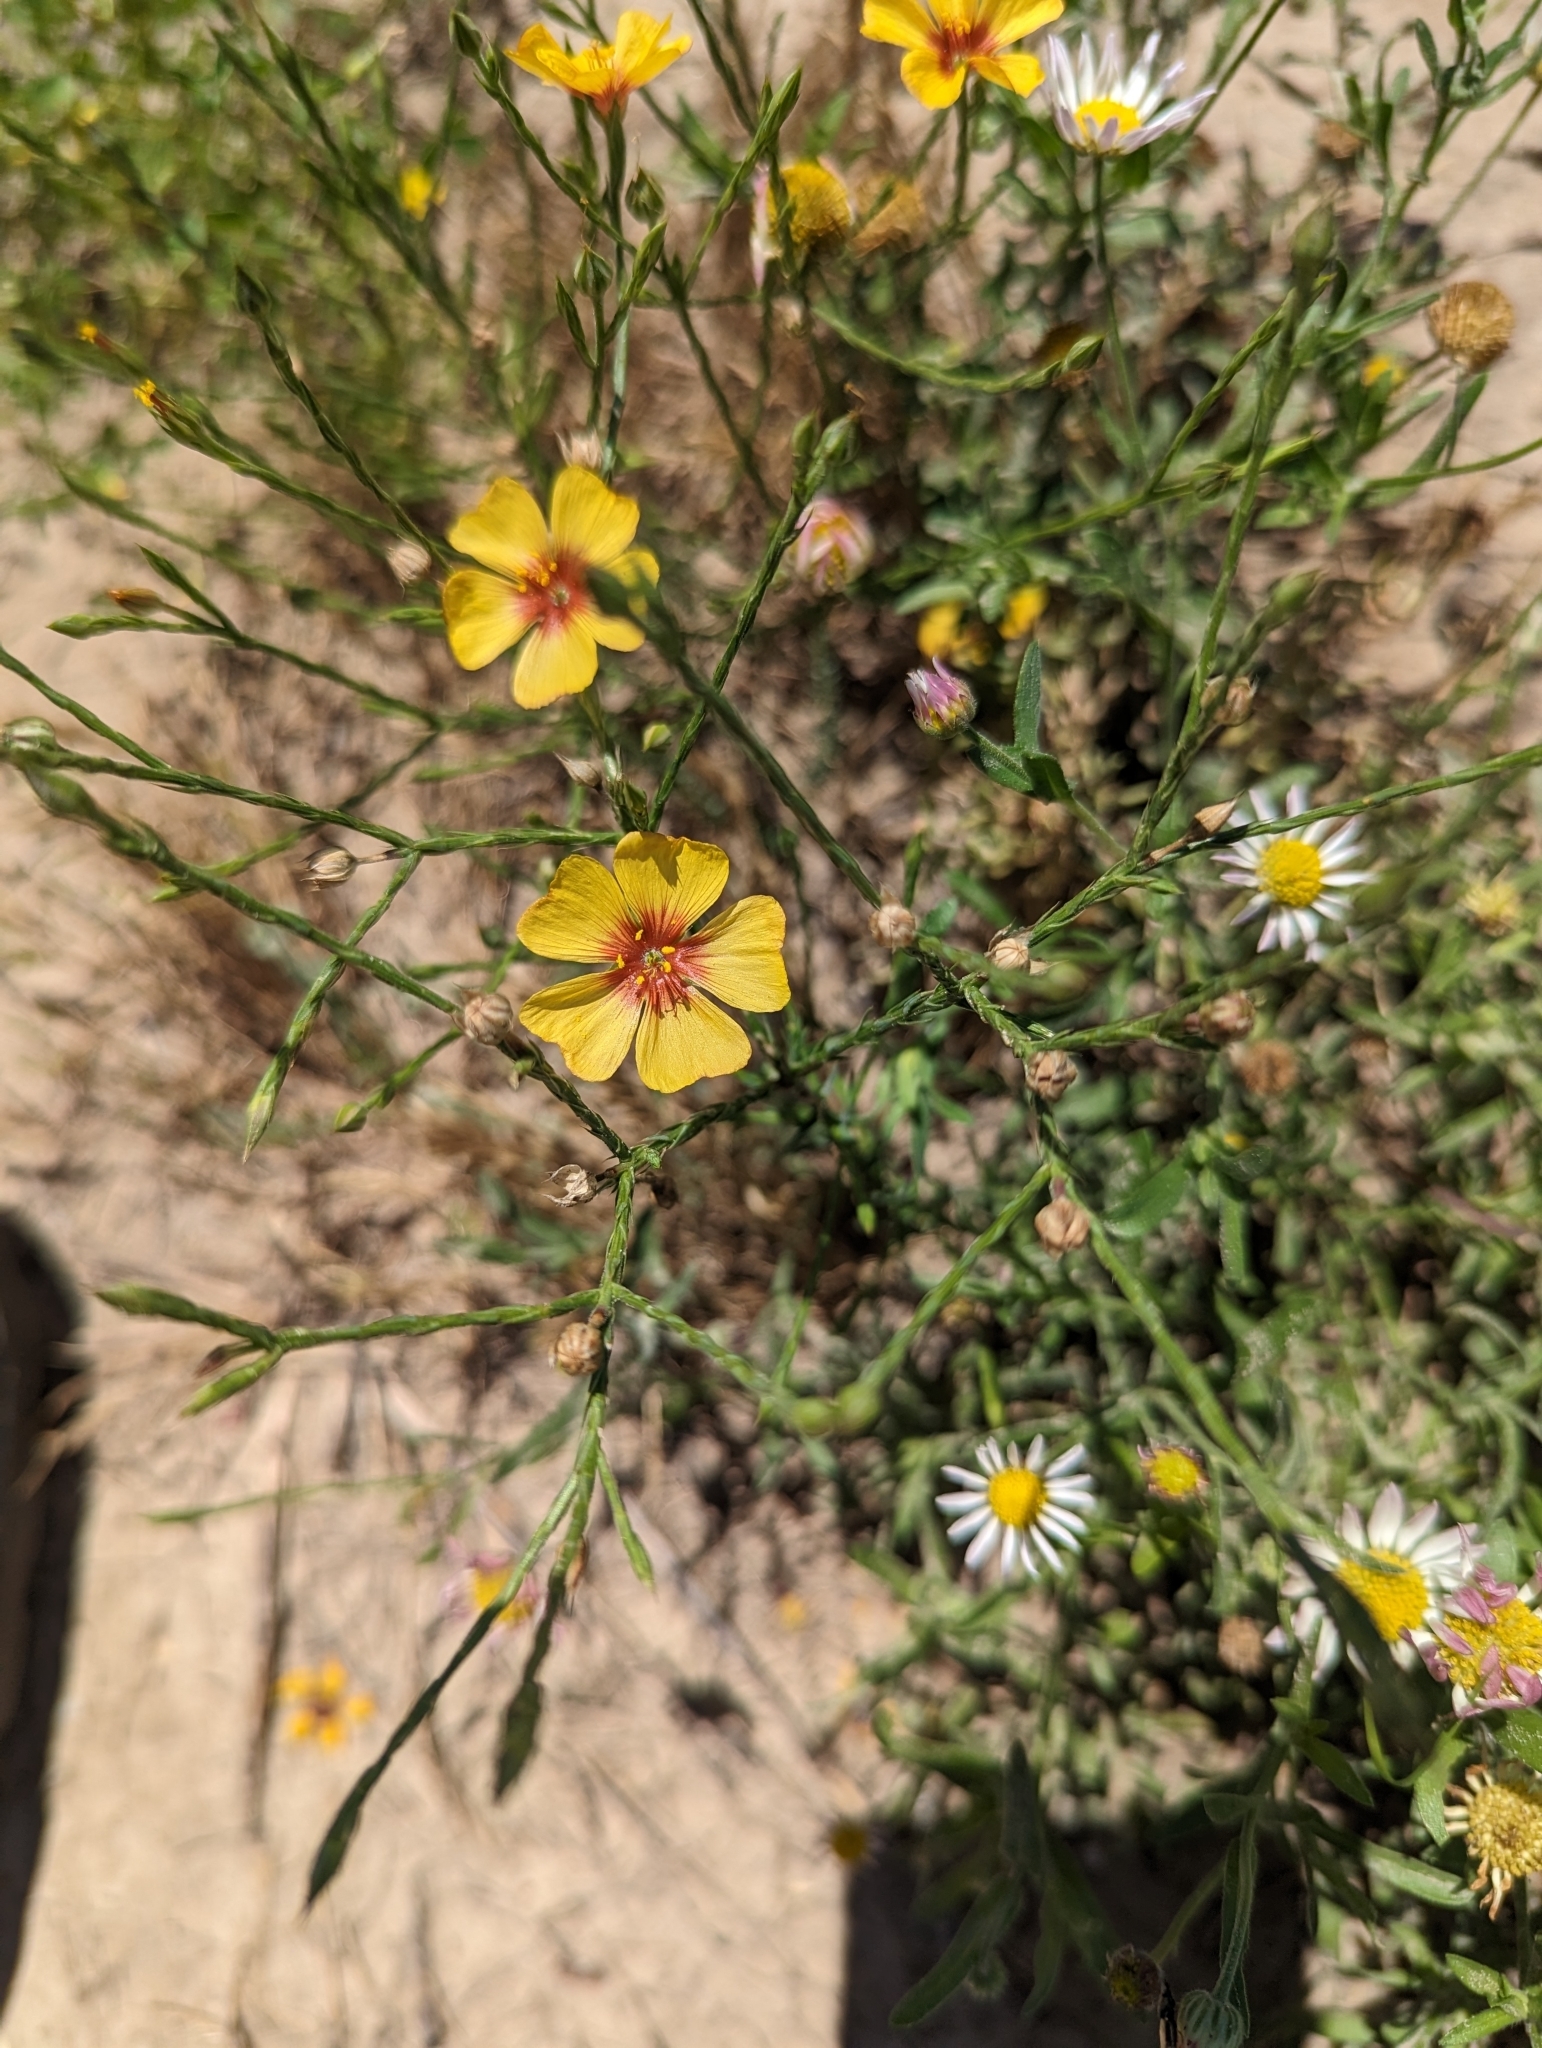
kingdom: Plantae
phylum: Tracheophyta
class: Magnoliopsida
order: Malpighiales
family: Linaceae
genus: Linum
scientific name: Linum imbricatum
